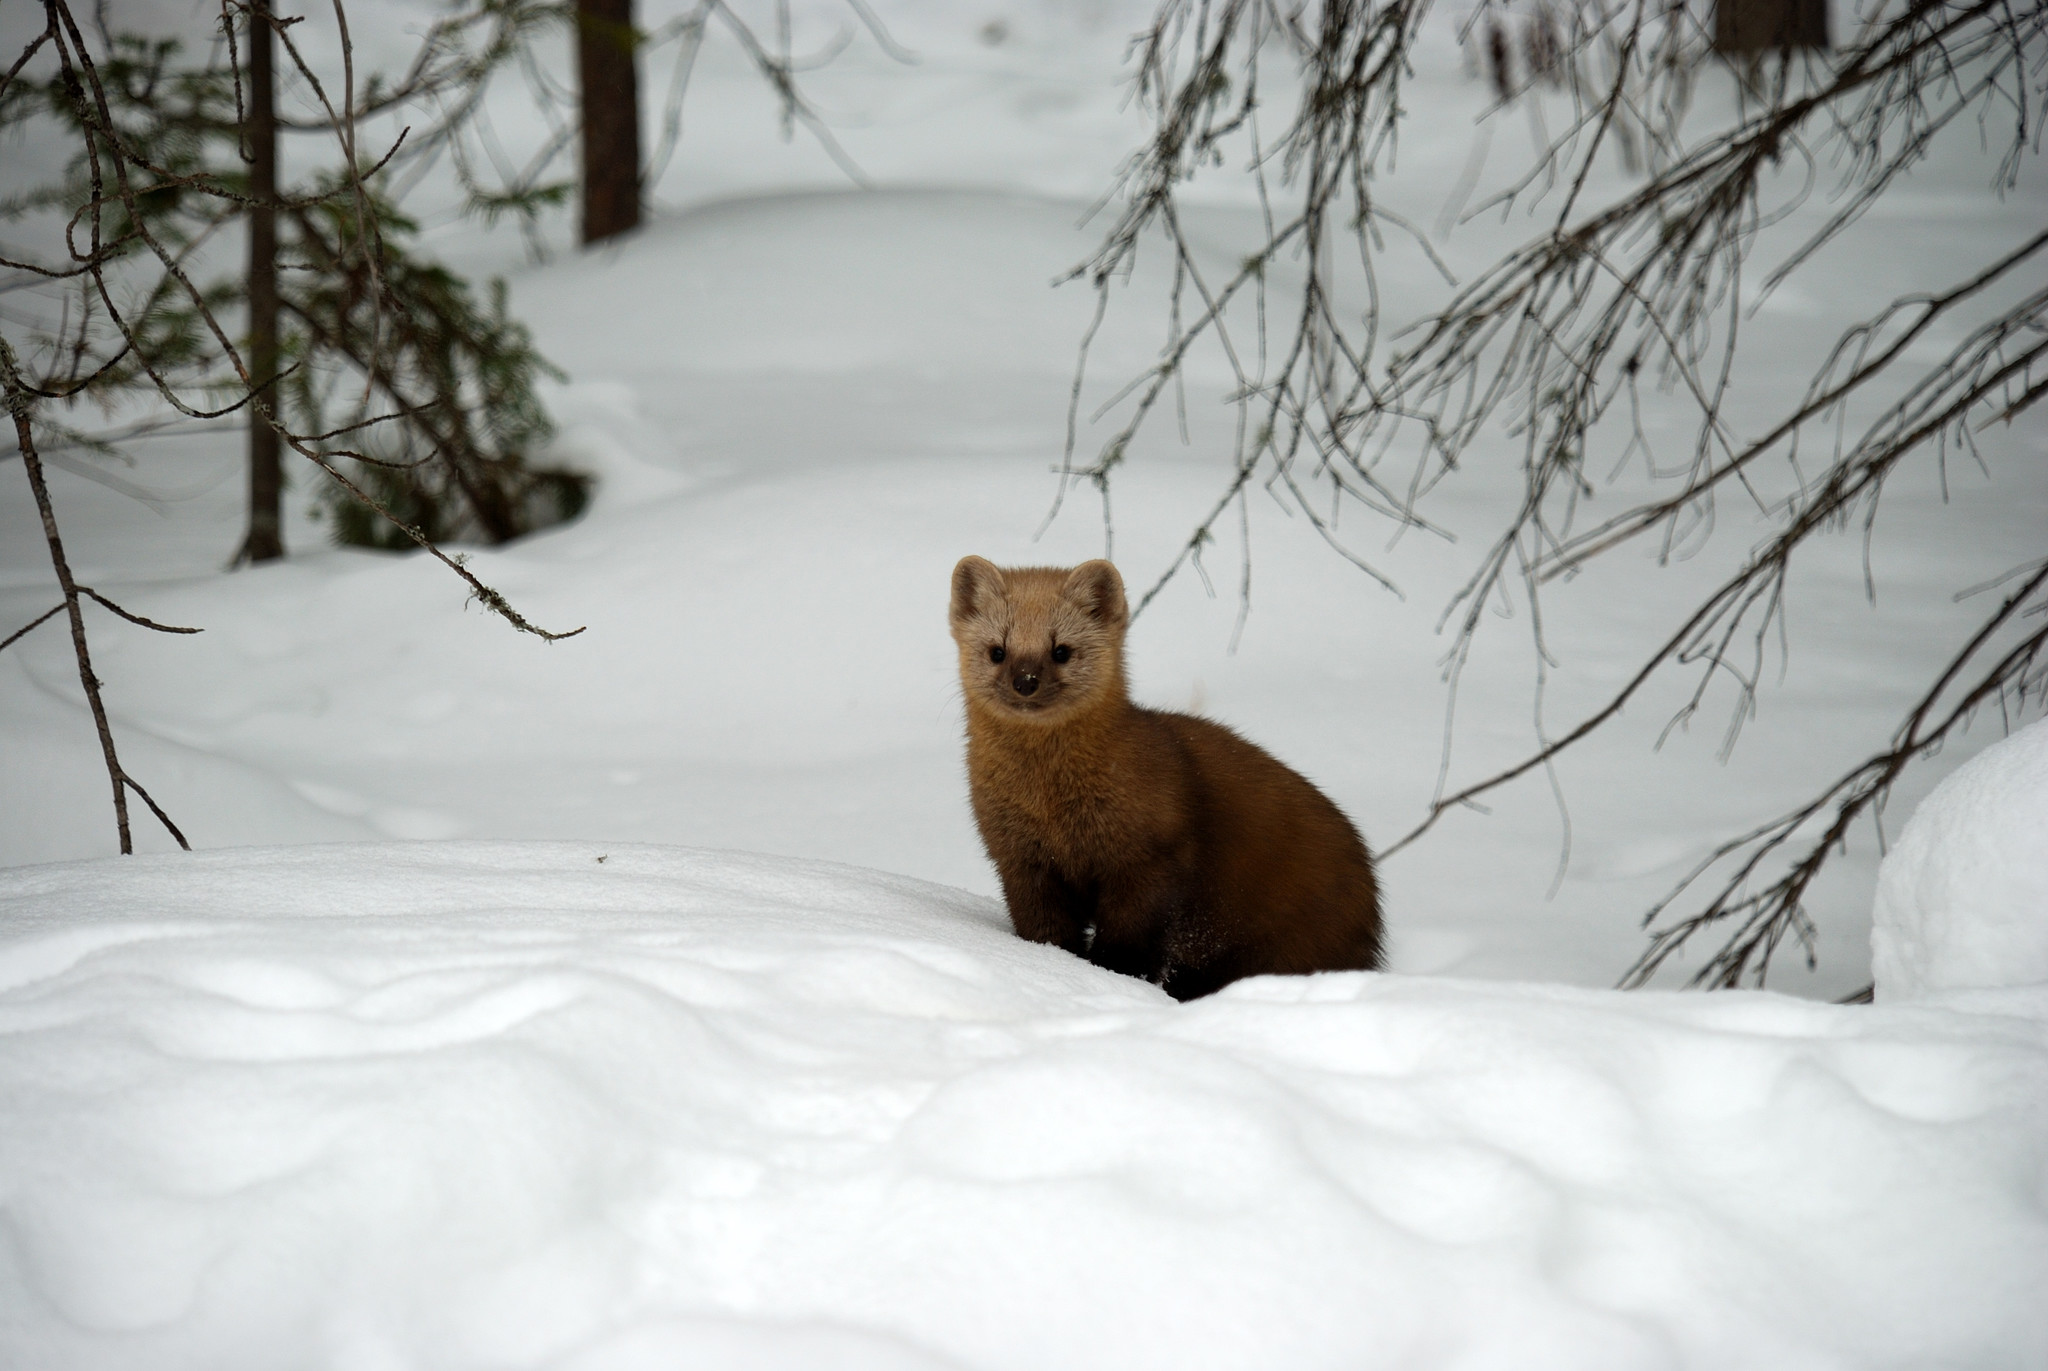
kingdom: Animalia
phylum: Chordata
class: Mammalia
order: Carnivora
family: Mustelidae
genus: Martes
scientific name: Martes zibellina
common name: Sable
